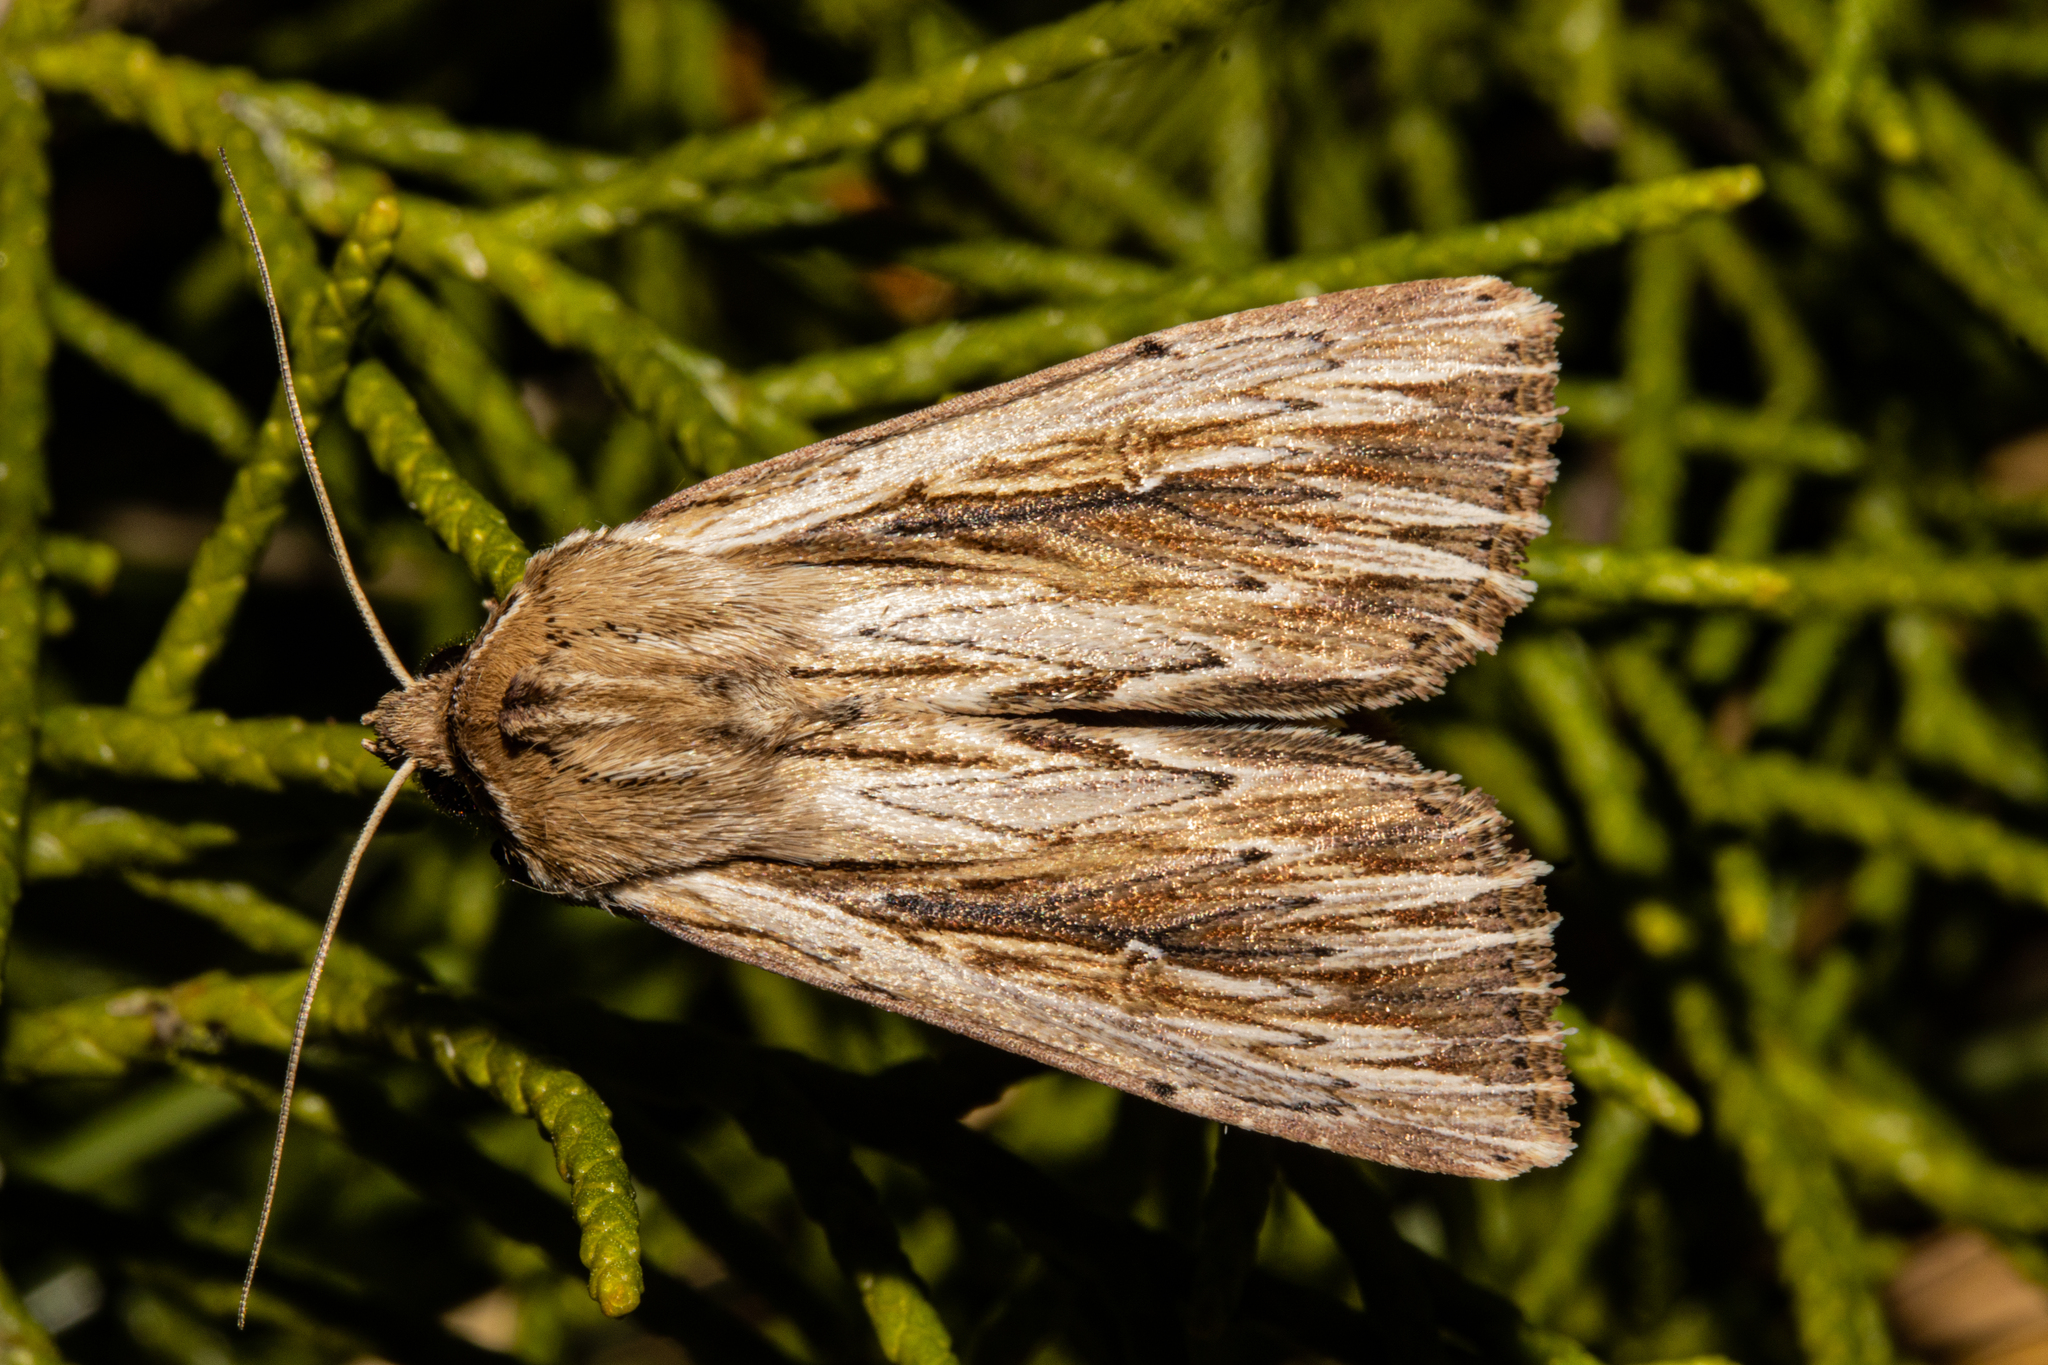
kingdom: Animalia
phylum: Arthropoda
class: Insecta
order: Lepidoptera
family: Noctuidae
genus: Persectania
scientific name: Persectania aversa
